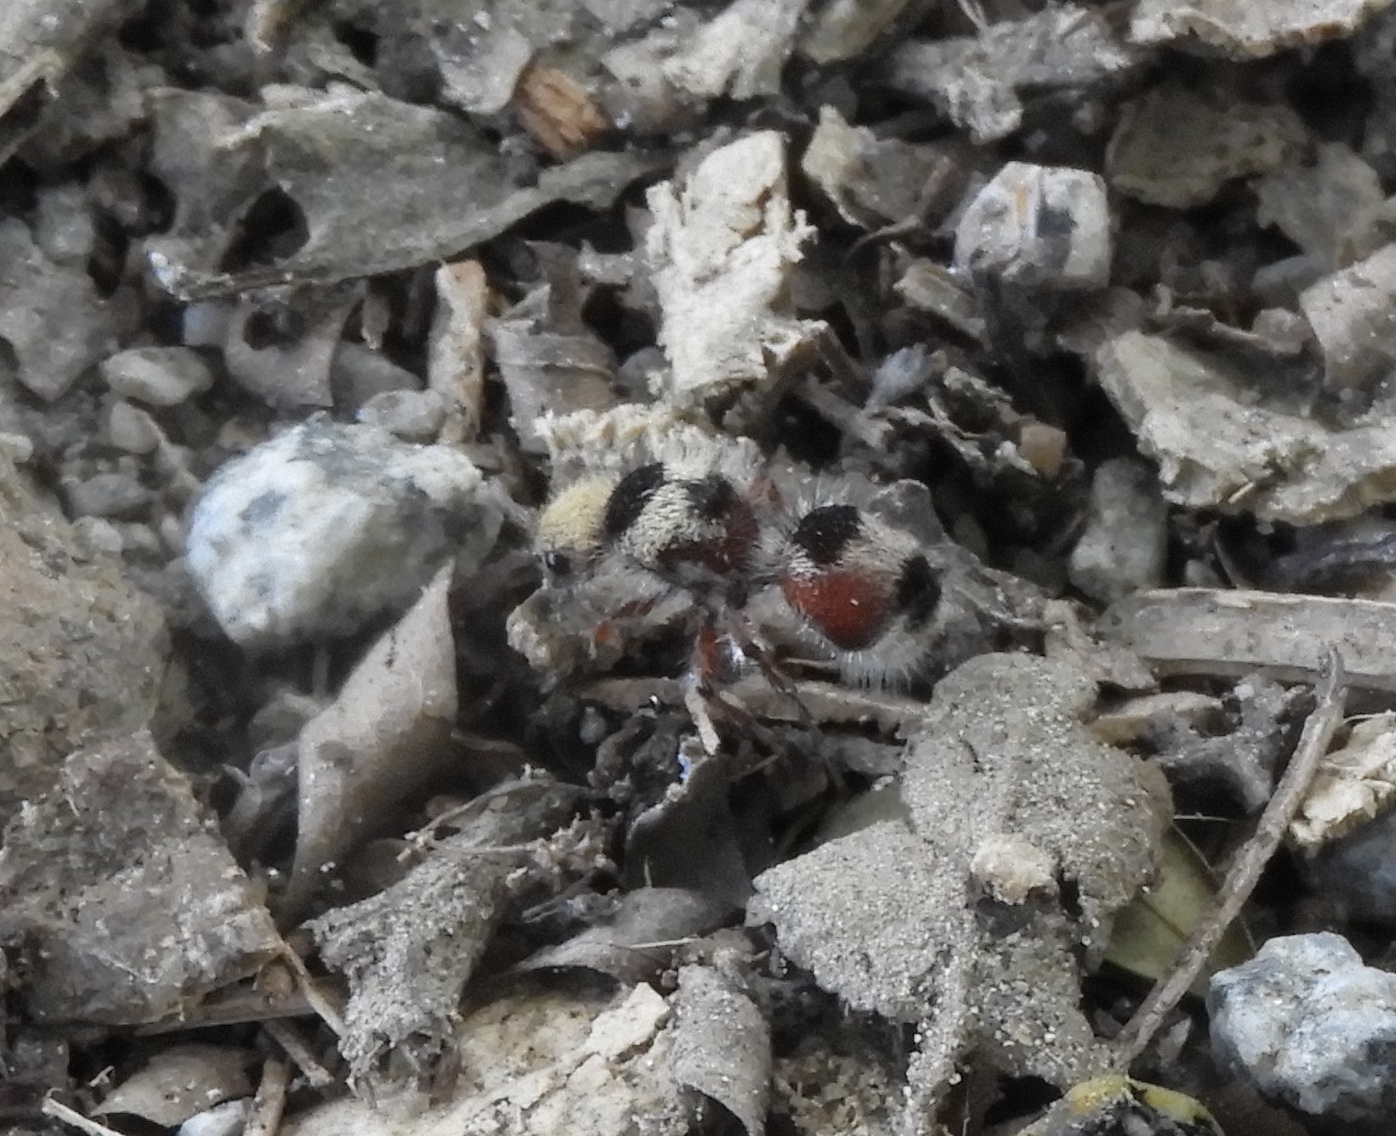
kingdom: Animalia
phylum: Arthropoda
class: Insecta
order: Hymenoptera
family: Mutillidae
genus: Dasymutilla
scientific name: Dasymutilla
